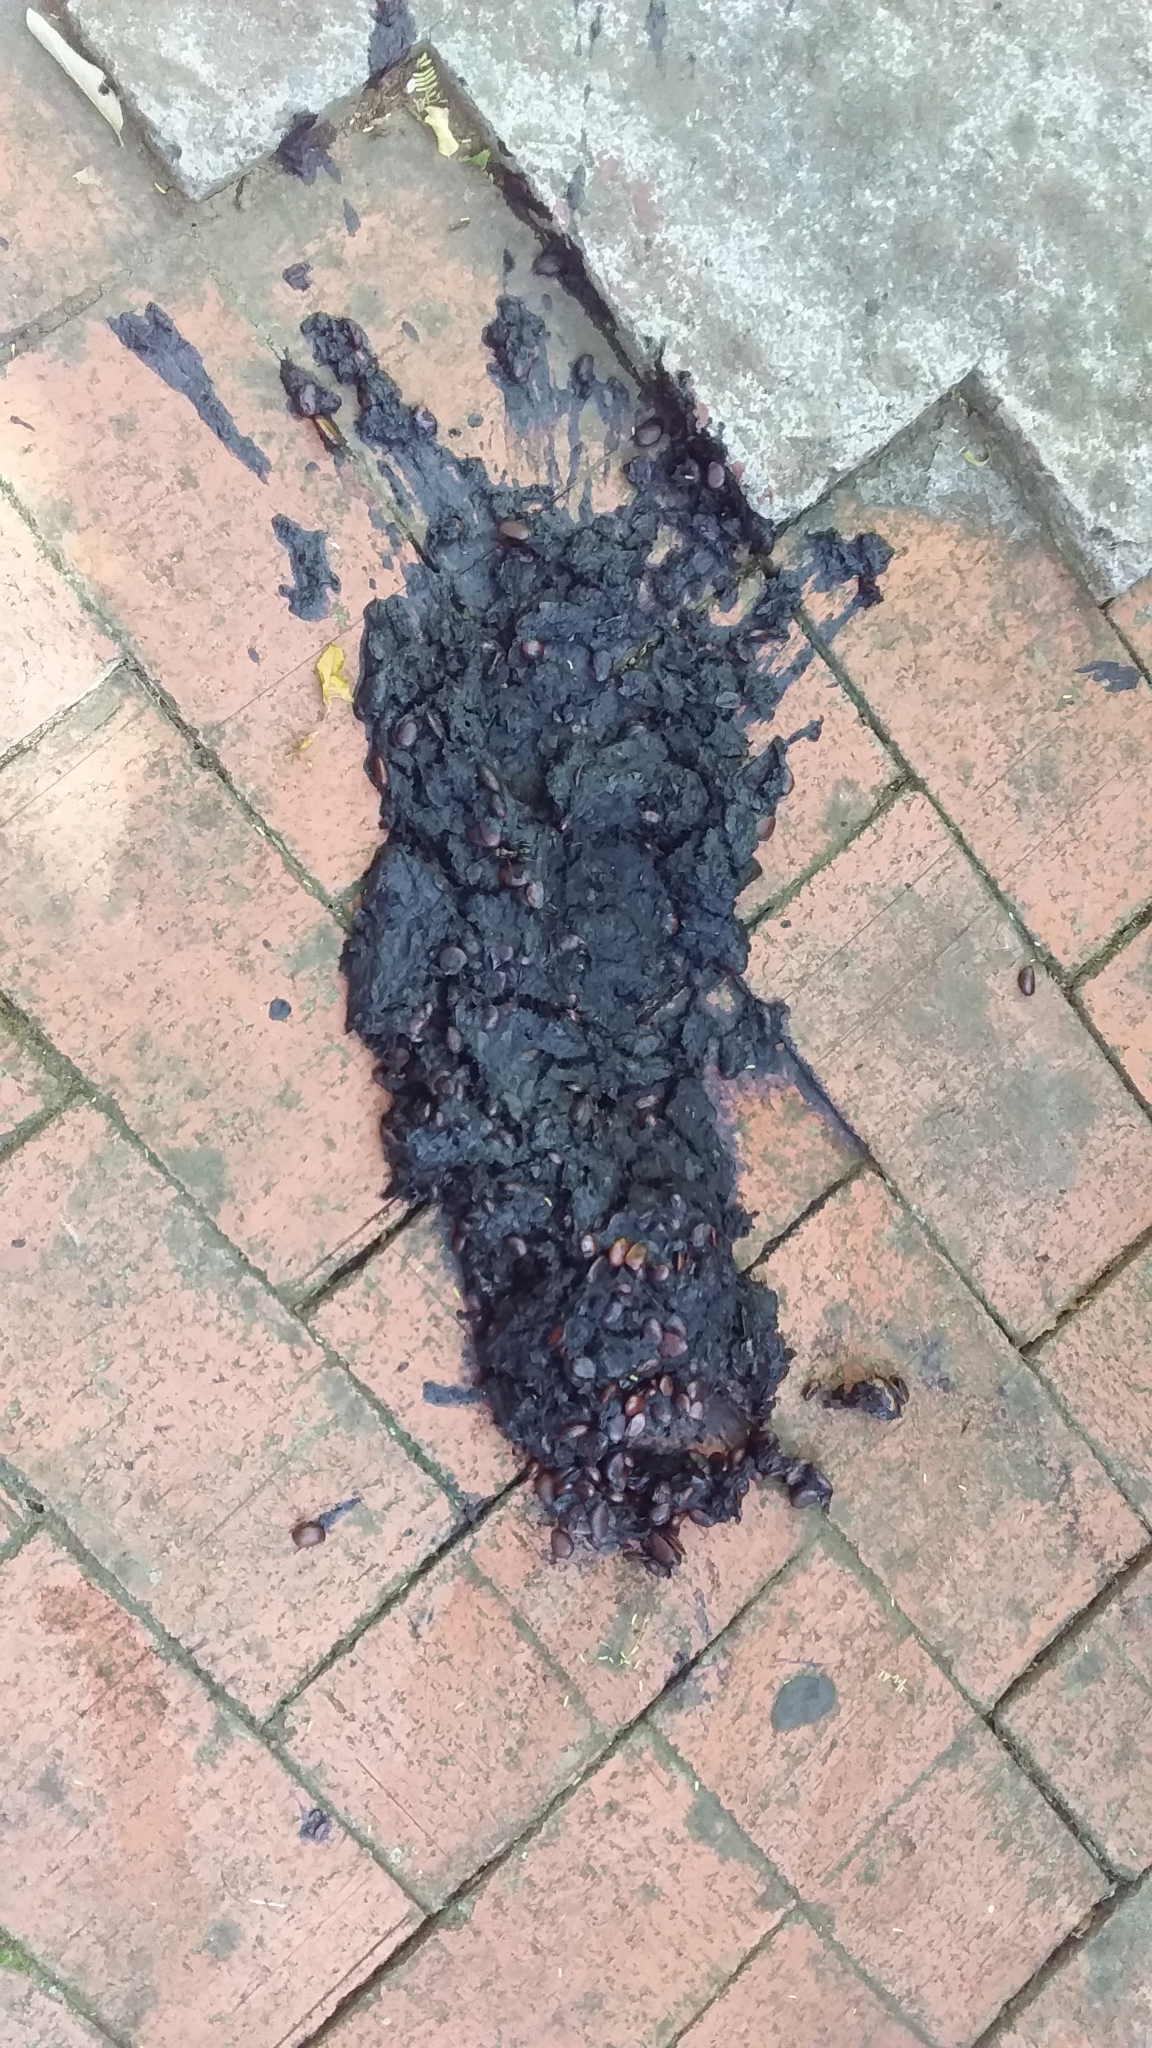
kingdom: Animalia
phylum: Chordata
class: Mammalia
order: Carnivora
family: Ursidae
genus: Ursus
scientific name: Ursus americanus
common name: American black bear
